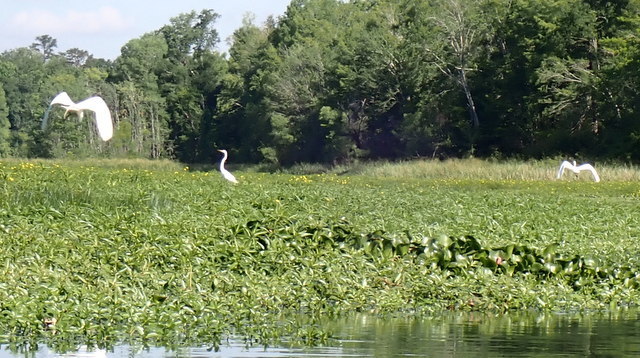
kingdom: Animalia
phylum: Chordata
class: Aves
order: Pelecaniformes
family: Ardeidae
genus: Ardea
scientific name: Ardea alba
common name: Great egret
